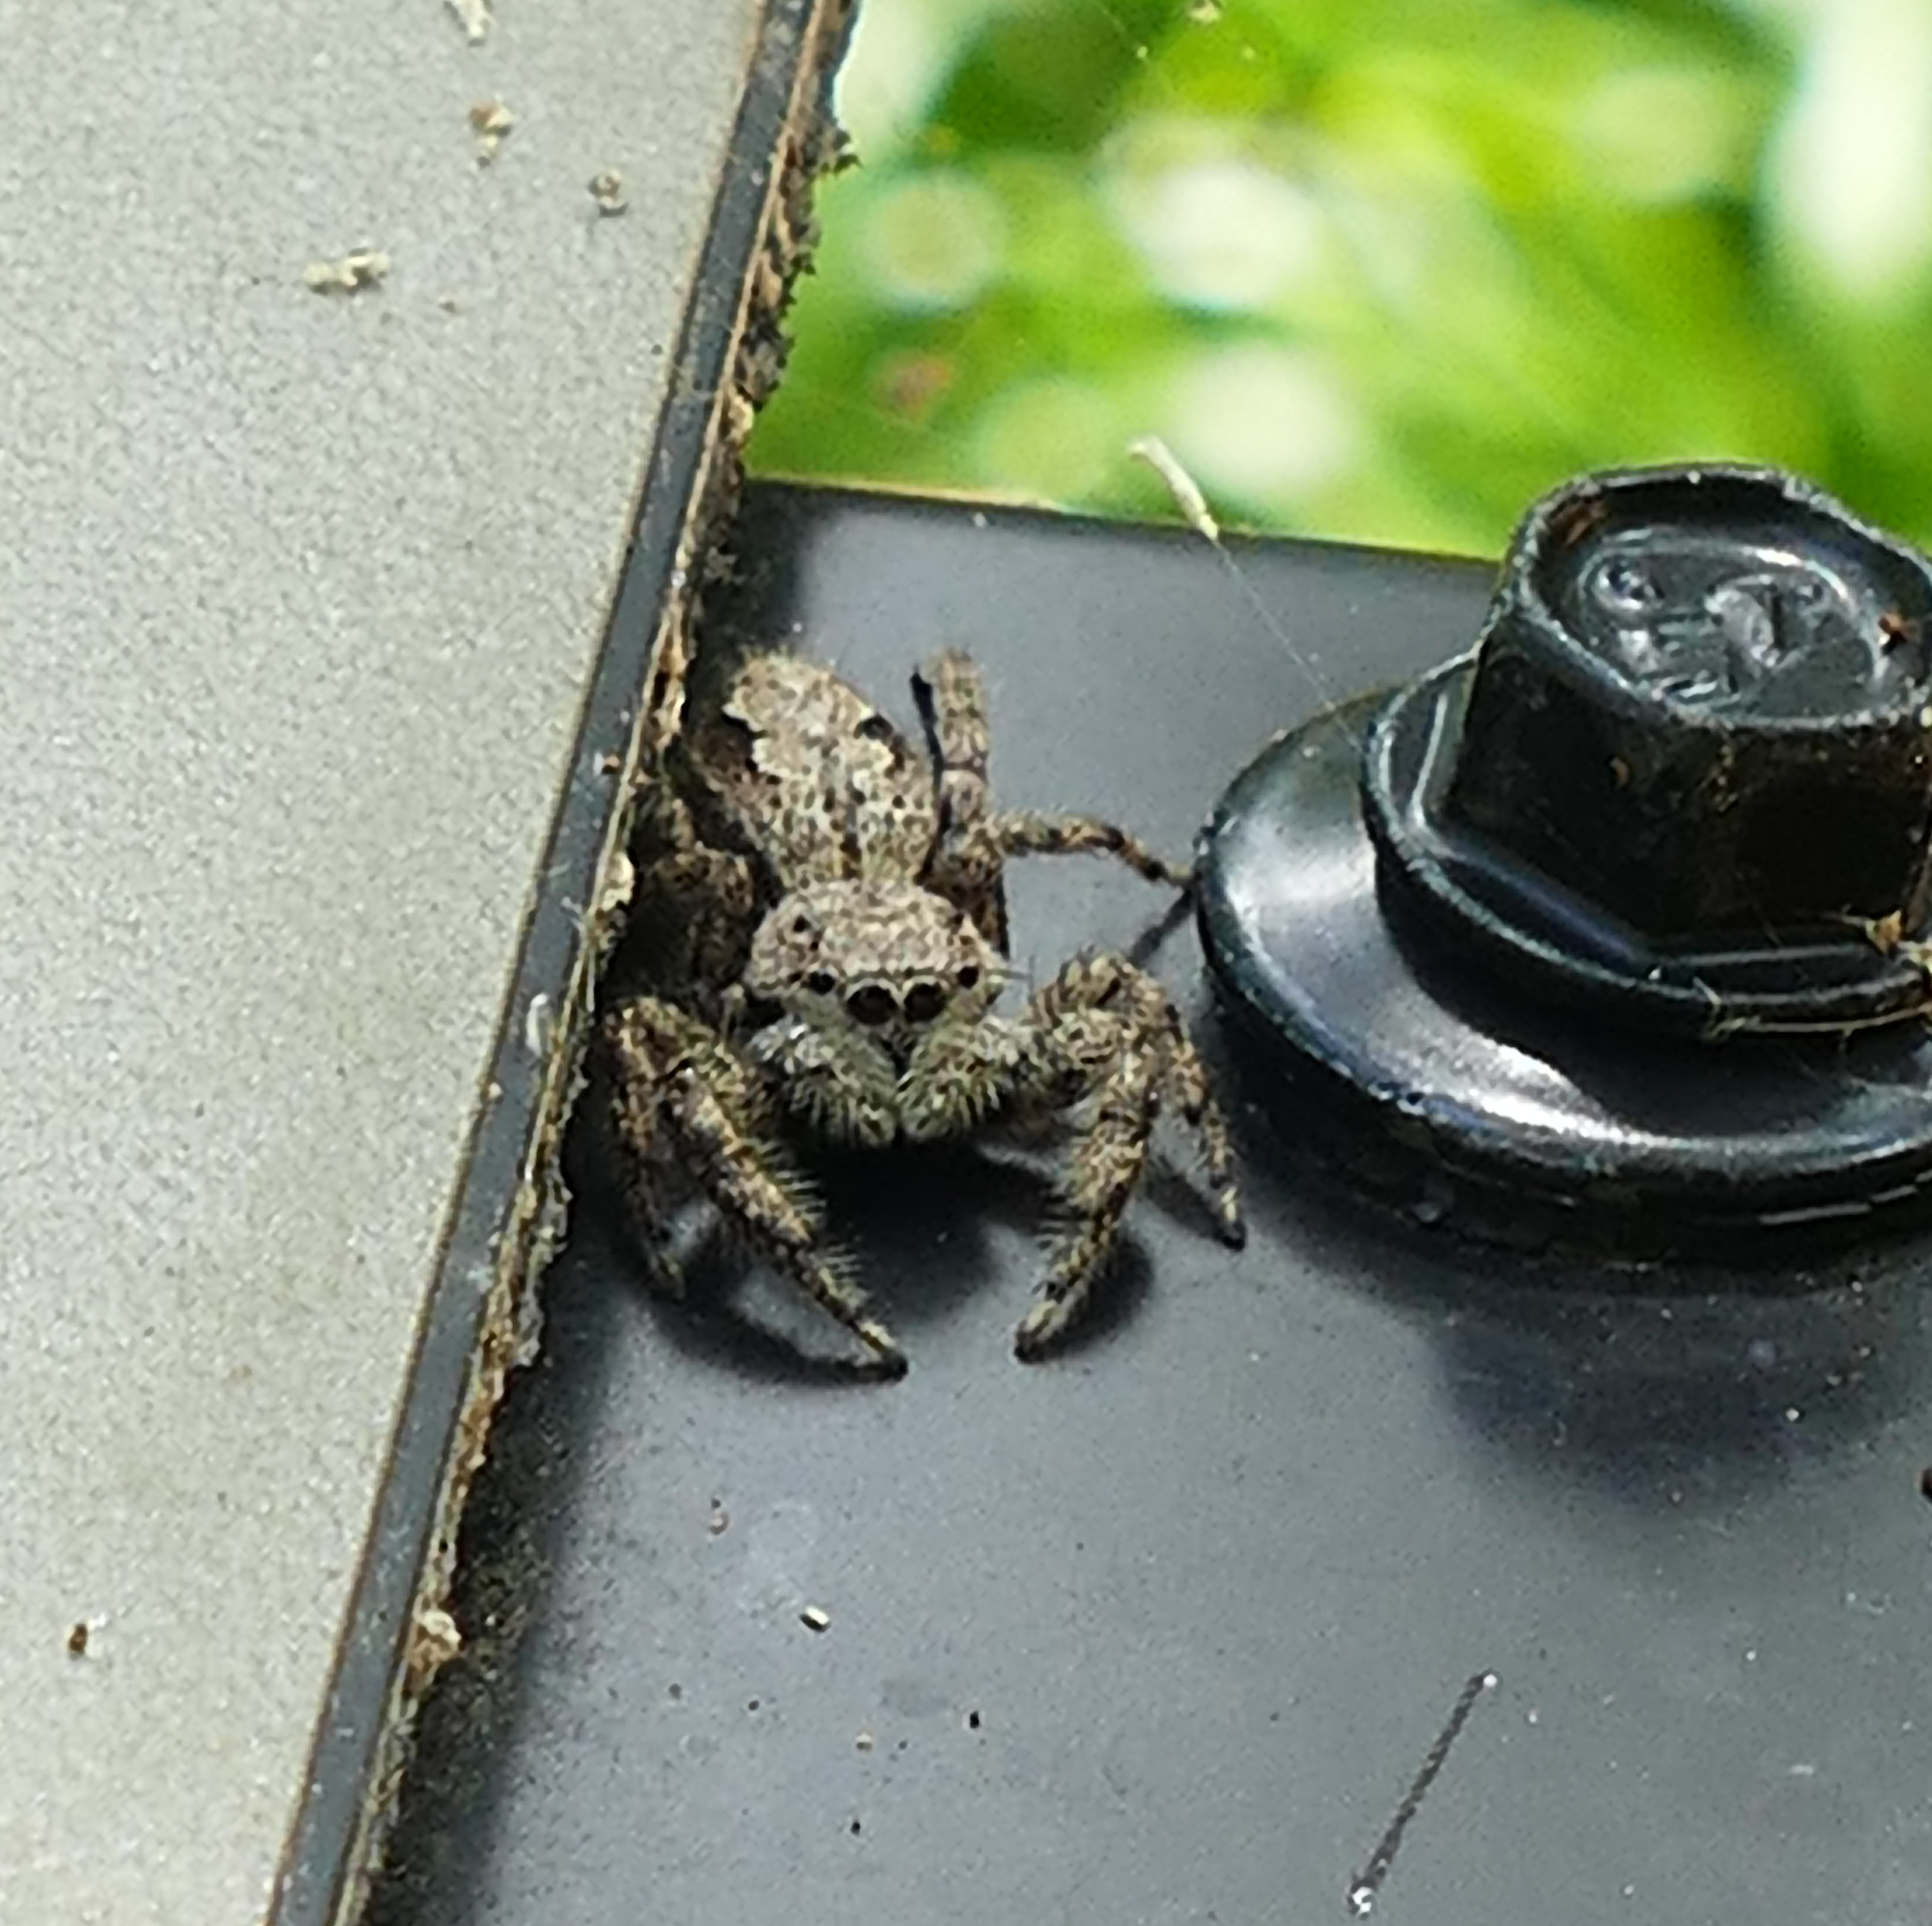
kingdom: Animalia
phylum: Arthropoda
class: Arachnida
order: Araneae
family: Salticidae
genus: Platycryptus
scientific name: Platycryptus undatus
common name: Tan jumping spider
